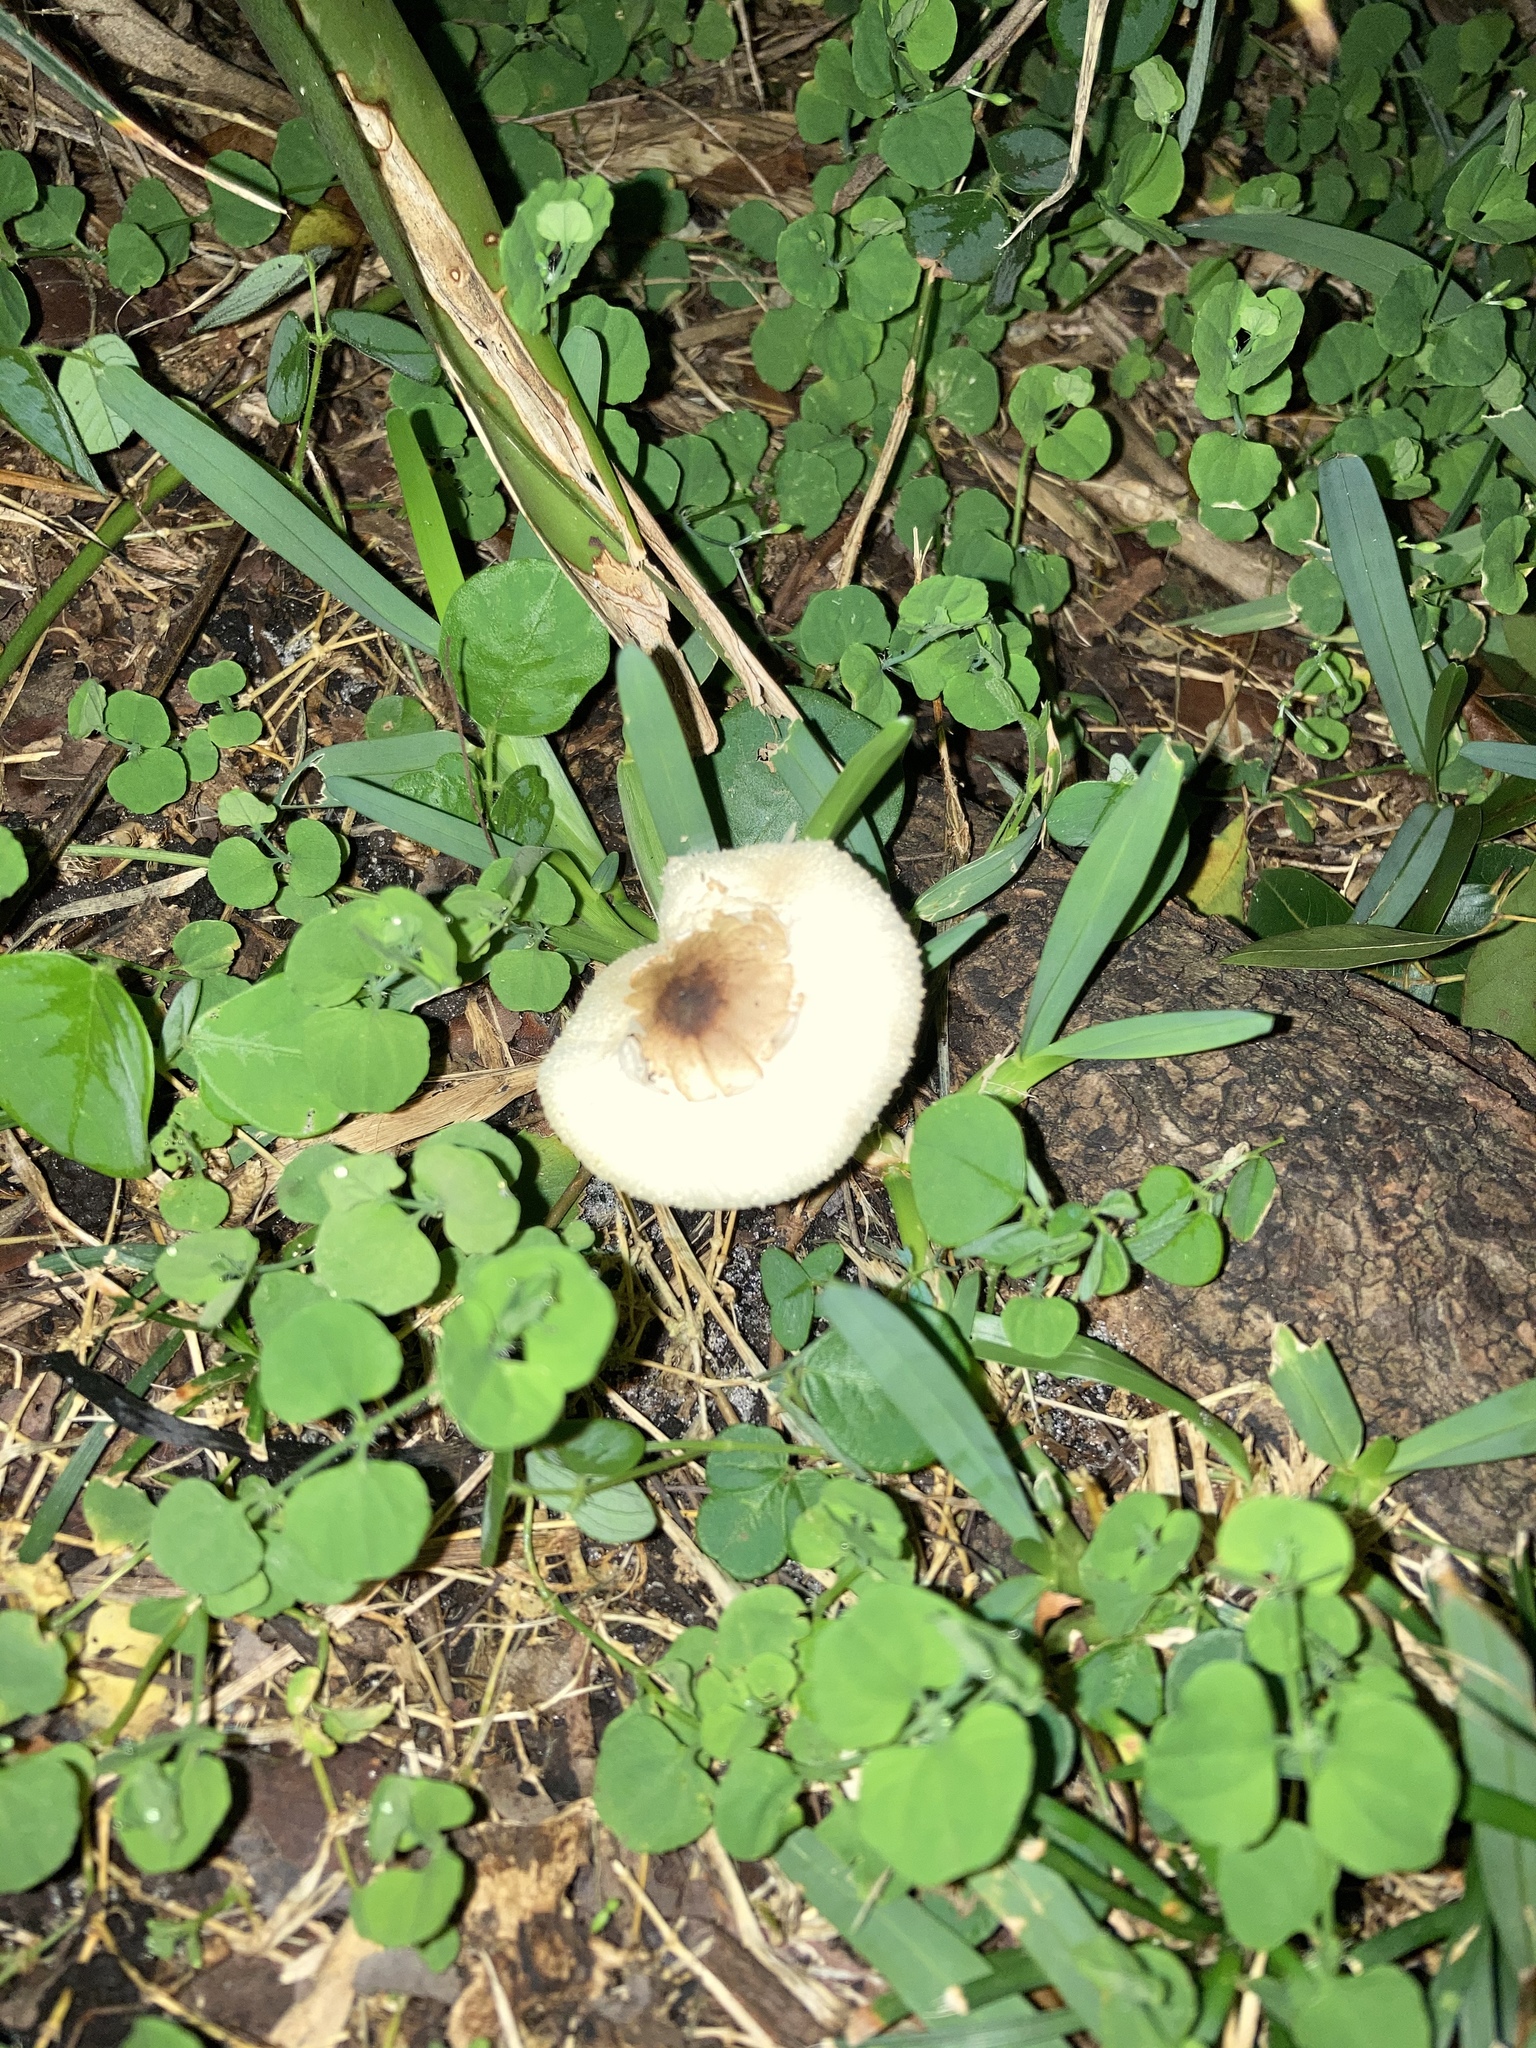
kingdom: Fungi
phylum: Basidiomycota
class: Agaricomycetes
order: Agaricales
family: Agaricaceae
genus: Chlorophyllum
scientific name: Chlorophyllum molybdites
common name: False parasol
